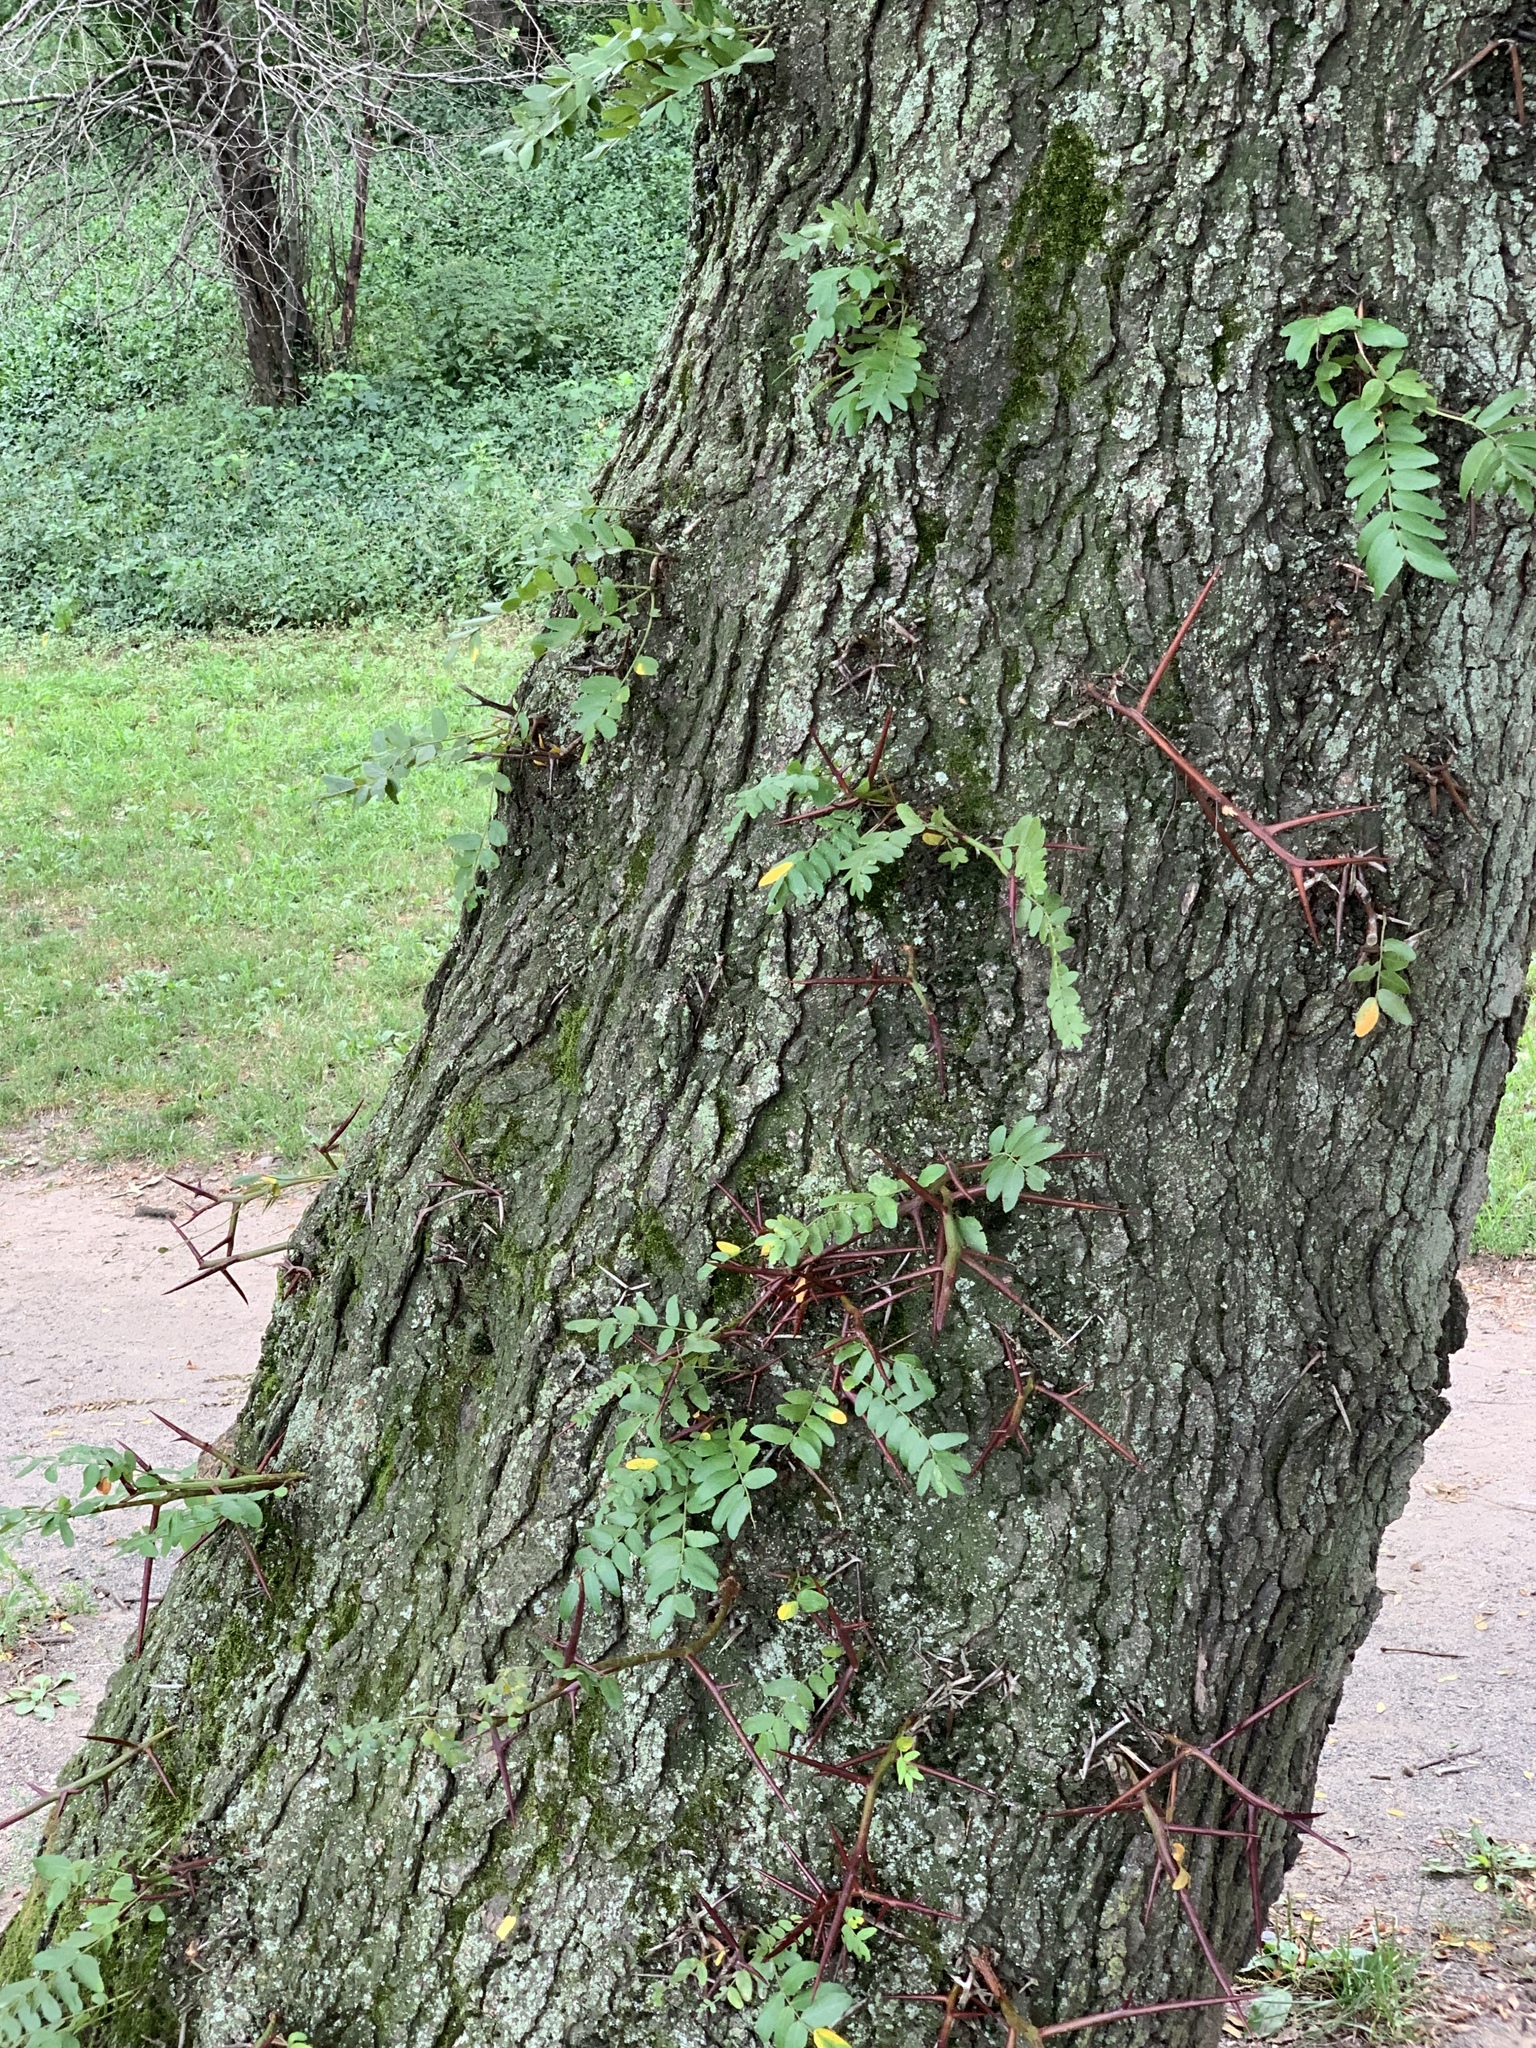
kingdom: Plantae
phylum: Tracheophyta
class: Magnoliopsida
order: Fabales
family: Fabaceae
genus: Gleditsia
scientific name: Gleditsia triacanthos
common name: Common honeylocust
